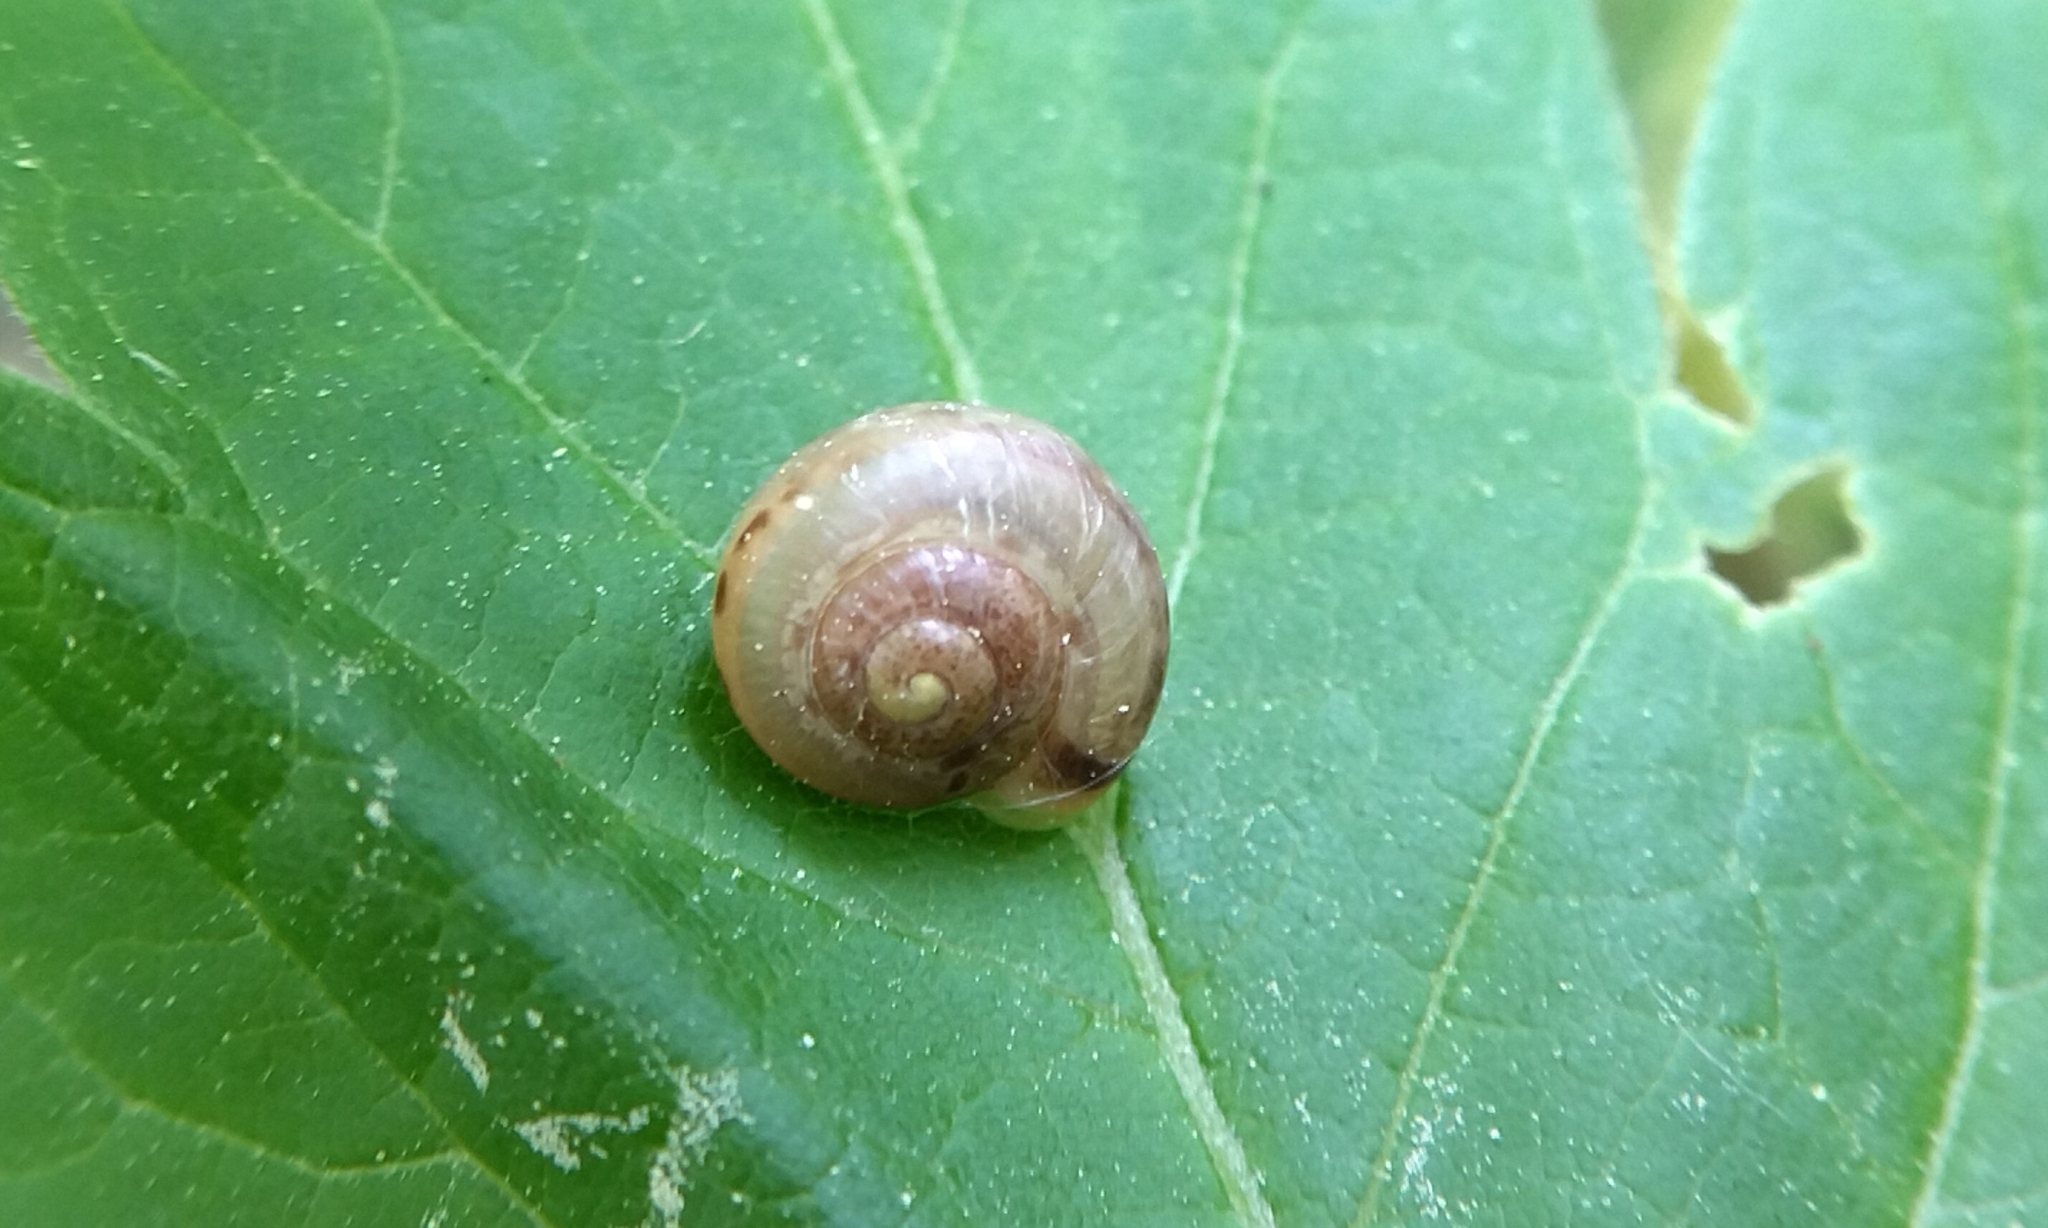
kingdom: Animalia
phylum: Mollusca
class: Gastropoda
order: Stylommatophora
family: Camaenidae
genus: Fruticicola
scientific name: Fruticicola fruticum
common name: Bush snail
